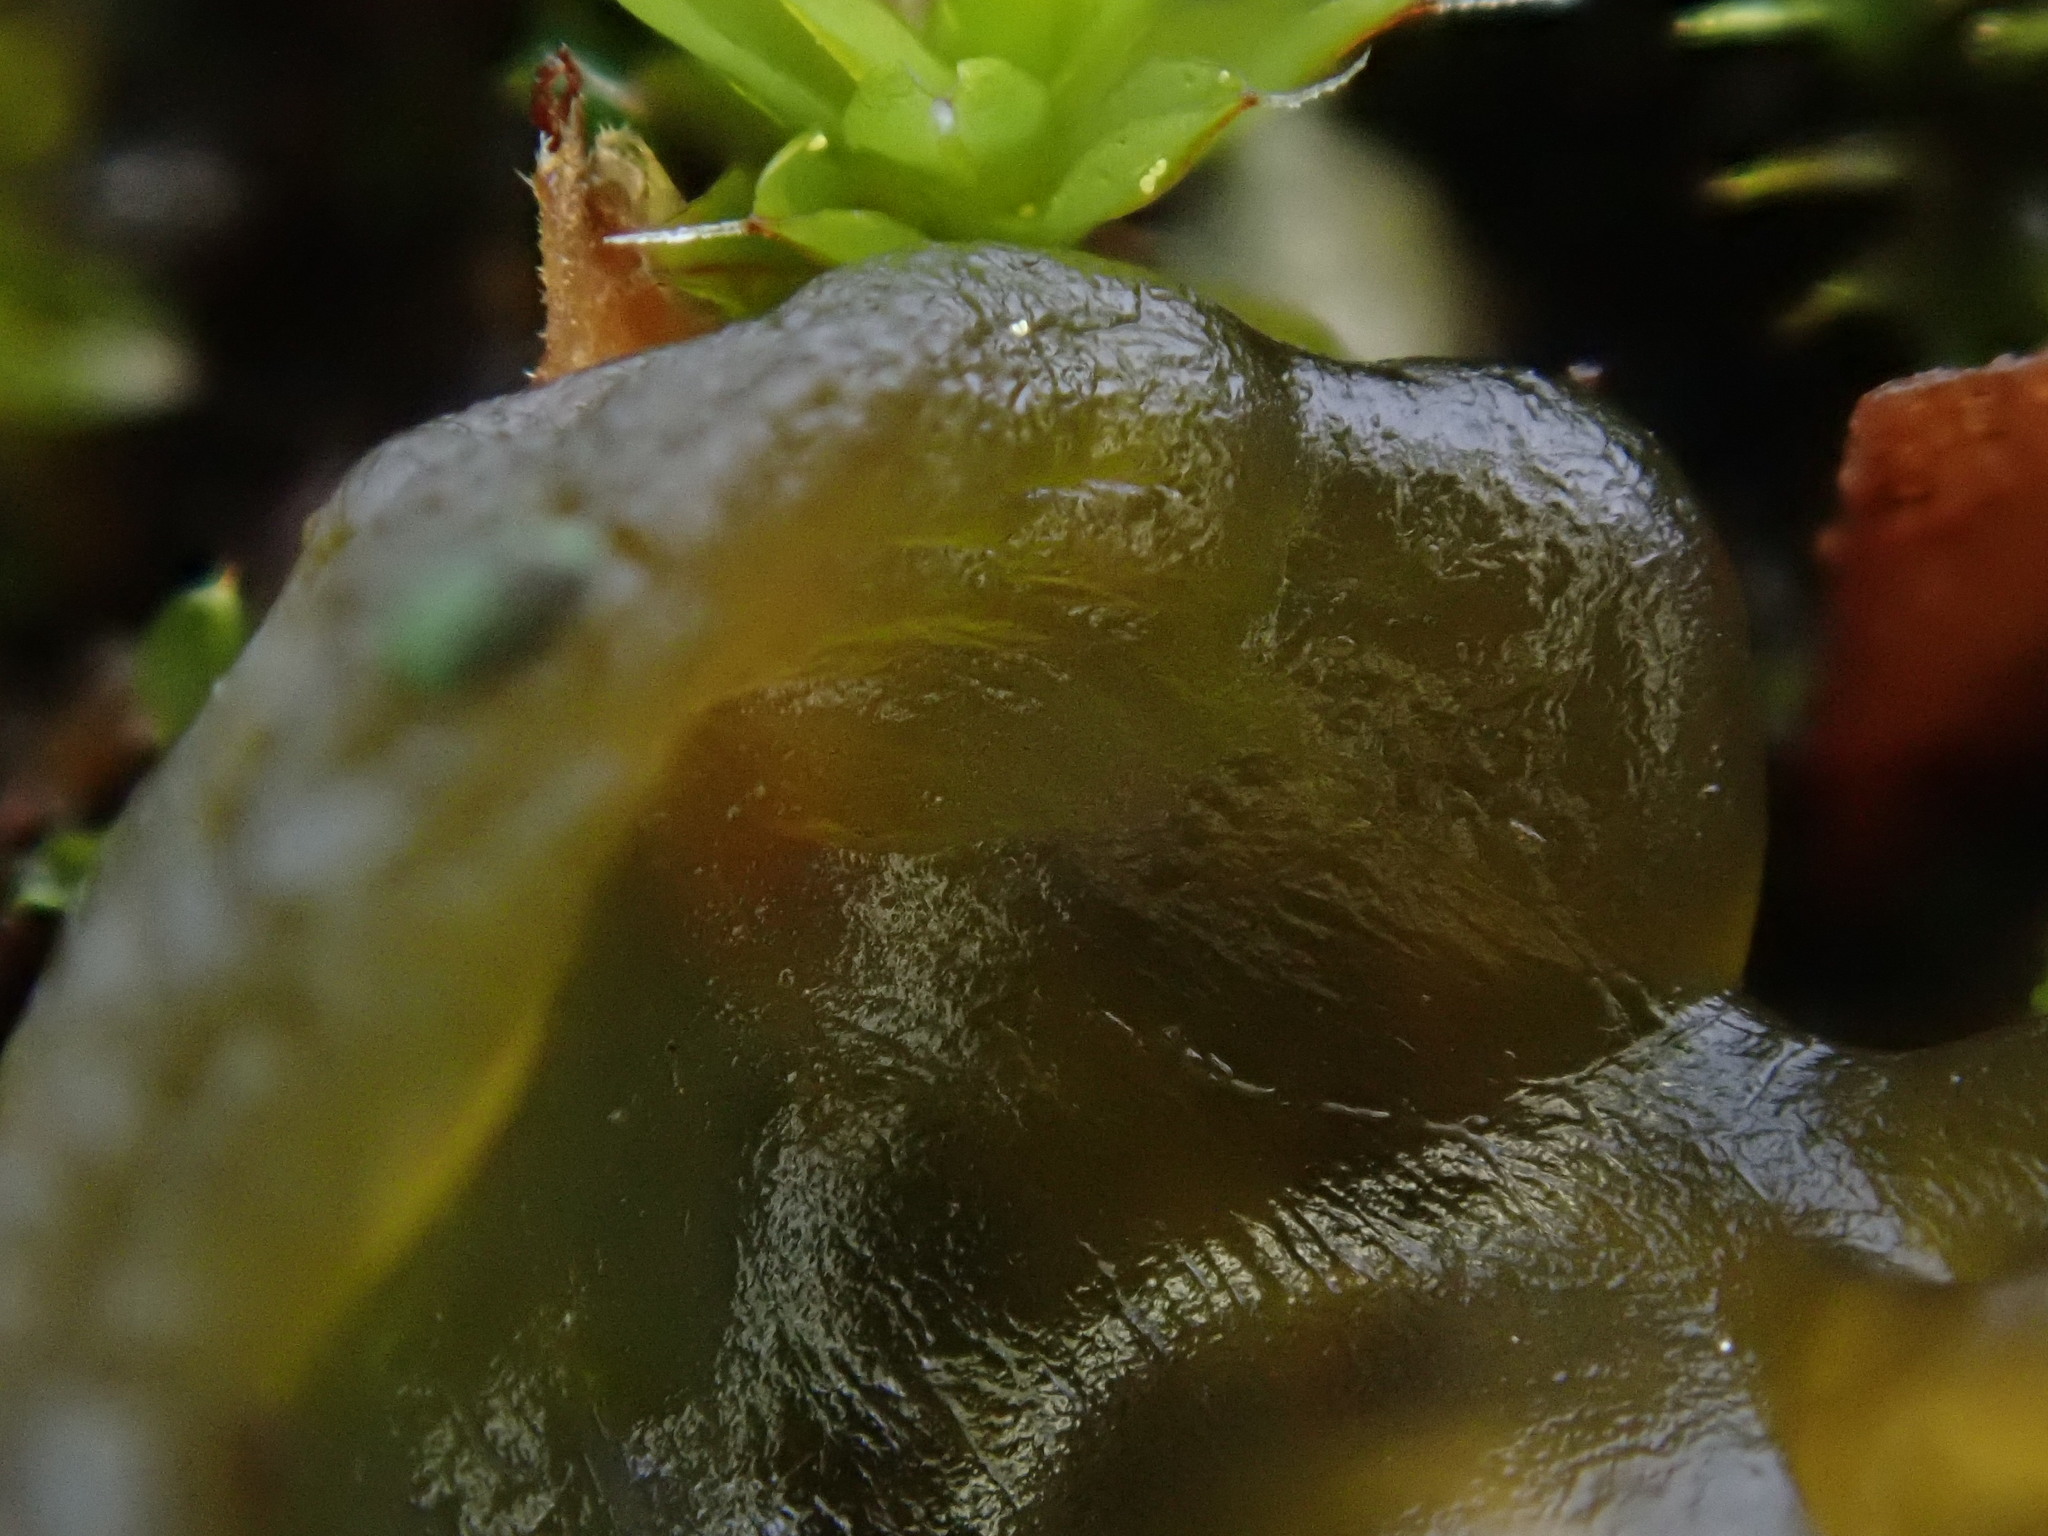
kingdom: Bacteria
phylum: Cyanobacteria
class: Cyanobacteriia
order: Cyanobacteriales
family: Nostocaceae
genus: Nostoc
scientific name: Nostoc commune
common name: Star jelly
